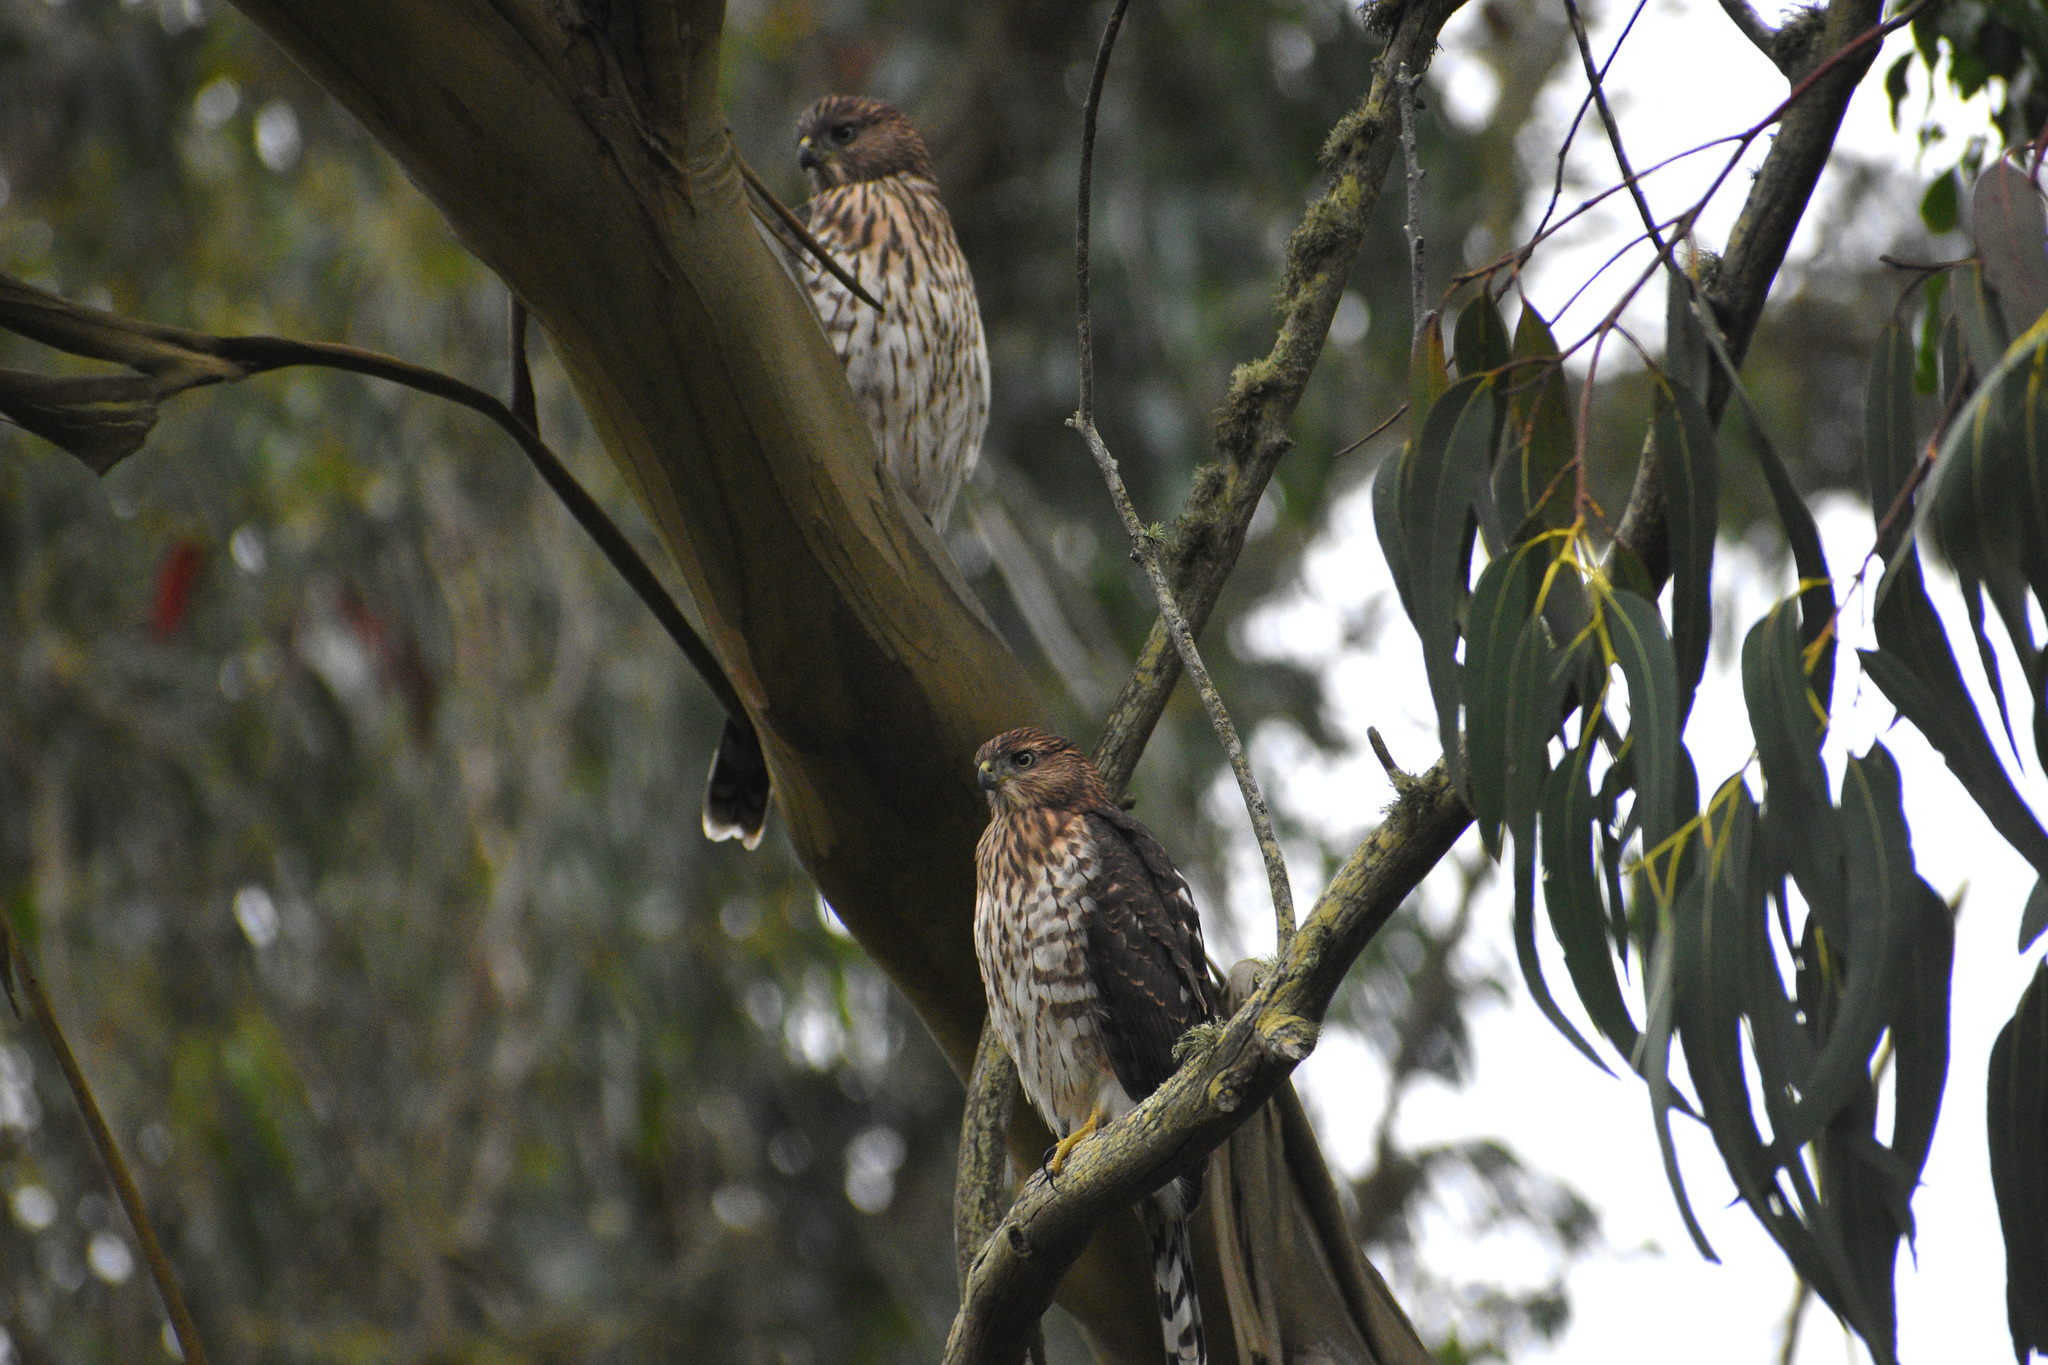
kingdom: Animalia
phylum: Chordata
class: Aves
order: Accipitriformes
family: Accipitridae
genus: Accipiter
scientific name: Accipiter cooperii
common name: Cooper's hawk
